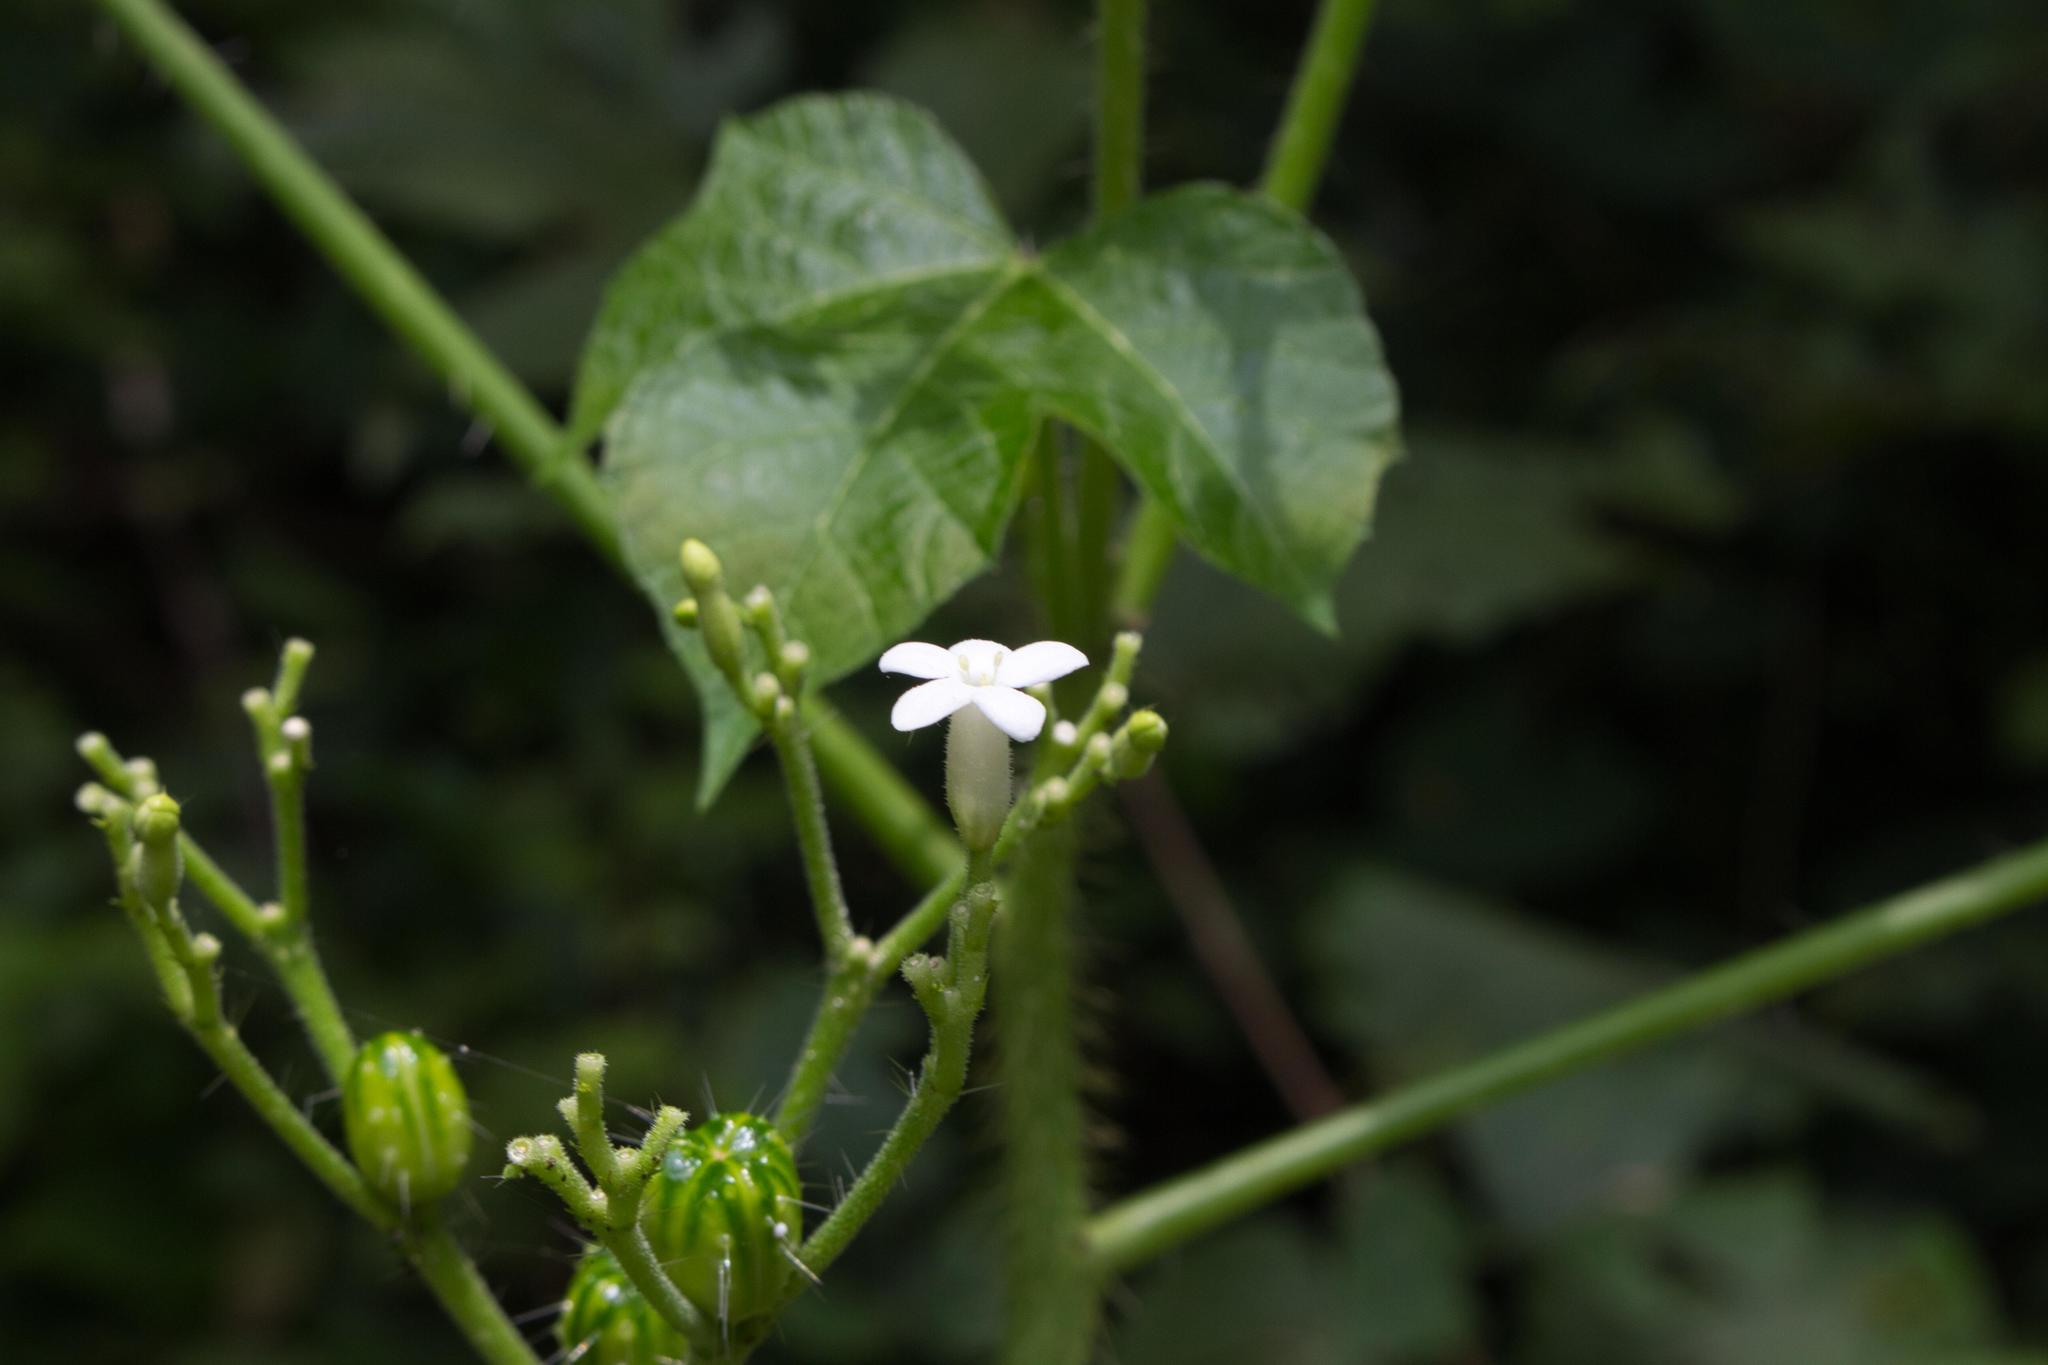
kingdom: Plantae
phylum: Tracheophyta
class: Magnoliopsida
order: Malpighiales
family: Euphorbiaceae
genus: Cnidoscolus
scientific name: Cnidoscolus urens
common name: Bull-nettle
